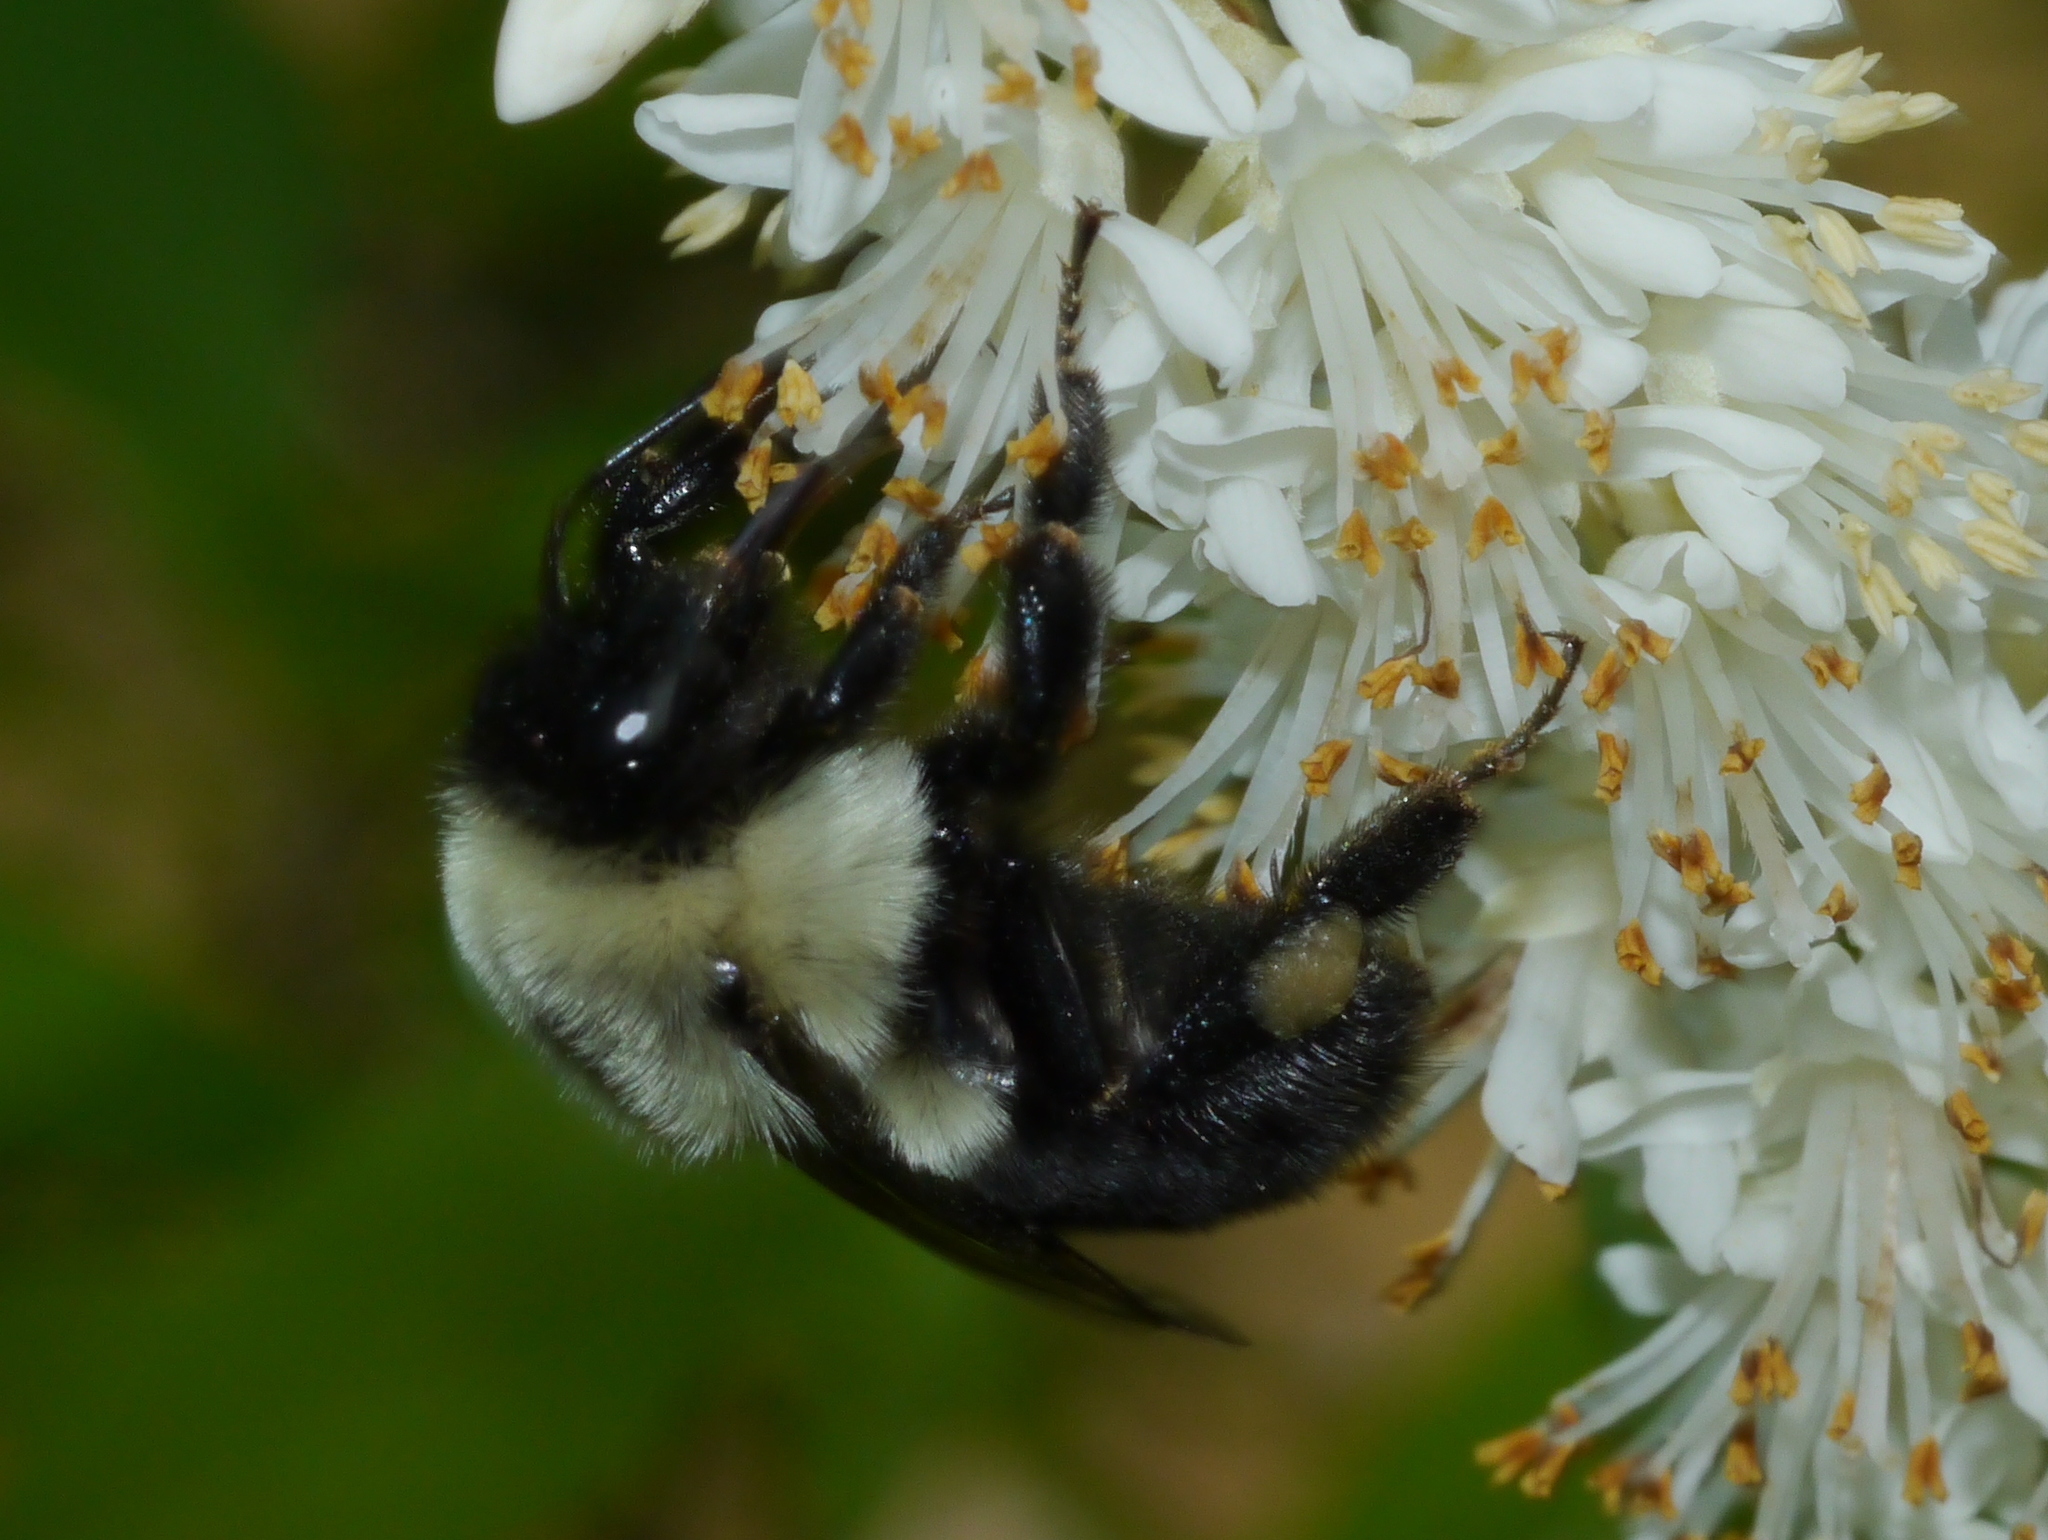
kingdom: Animalia
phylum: Arthropoda
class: Insecta
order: Hymenoptera
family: Apidae
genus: Bombus
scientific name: Bombus impatiens
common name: Common eastern bumble bee
